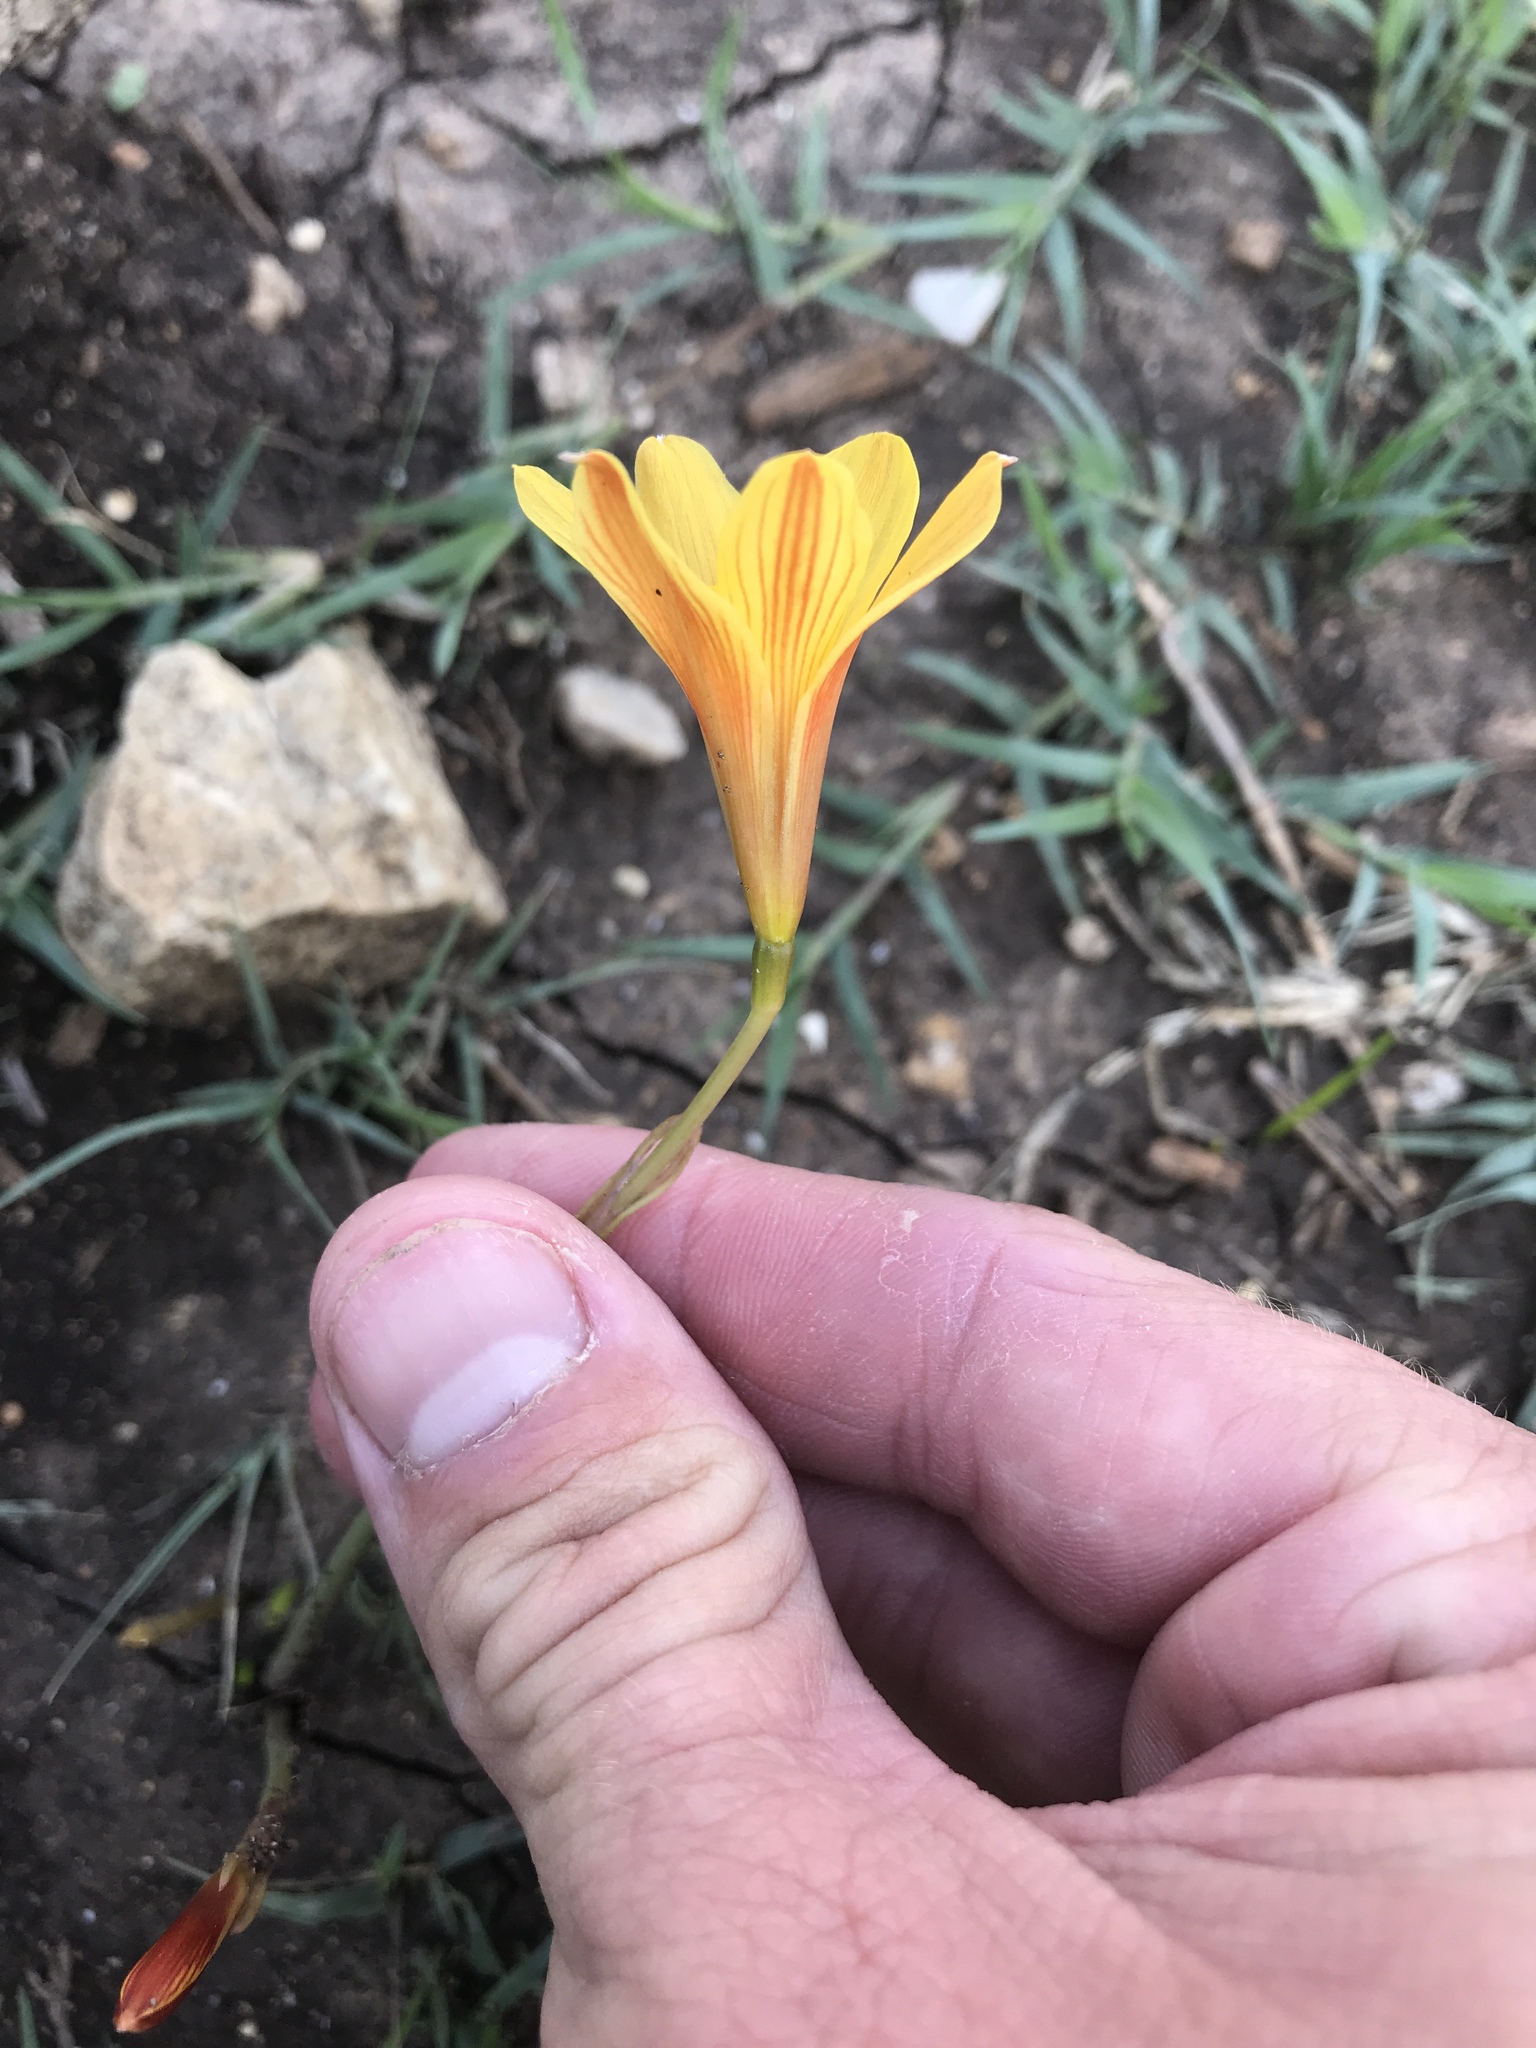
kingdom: Plantae
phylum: Tracheophyta
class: Liliopsida
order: Asparagales
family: Amaryllidaceae
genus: Zephyranthes
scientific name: Zephyranthes tubispatha
